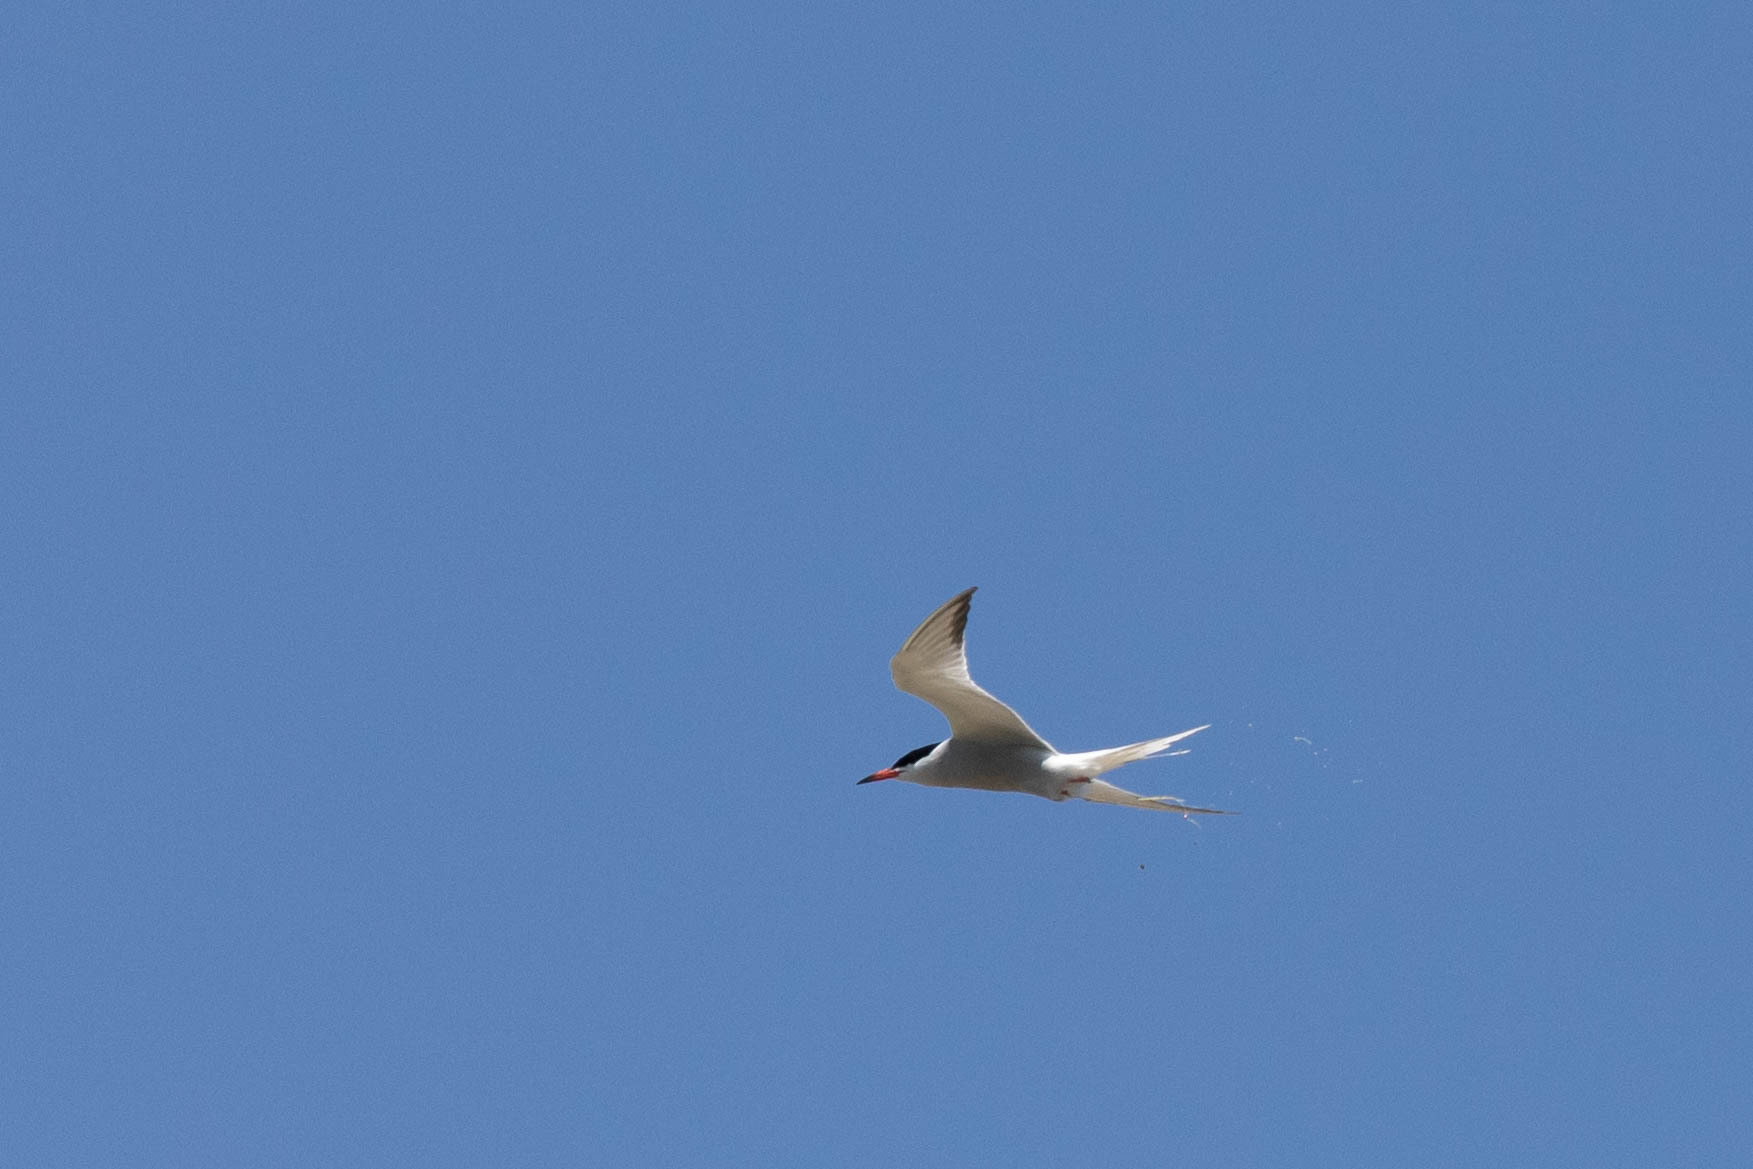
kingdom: Animalia
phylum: Chordata
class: Aves
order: Charadriiformes
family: Laridae
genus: Sterna
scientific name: Sterna hirundo
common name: Common tern
